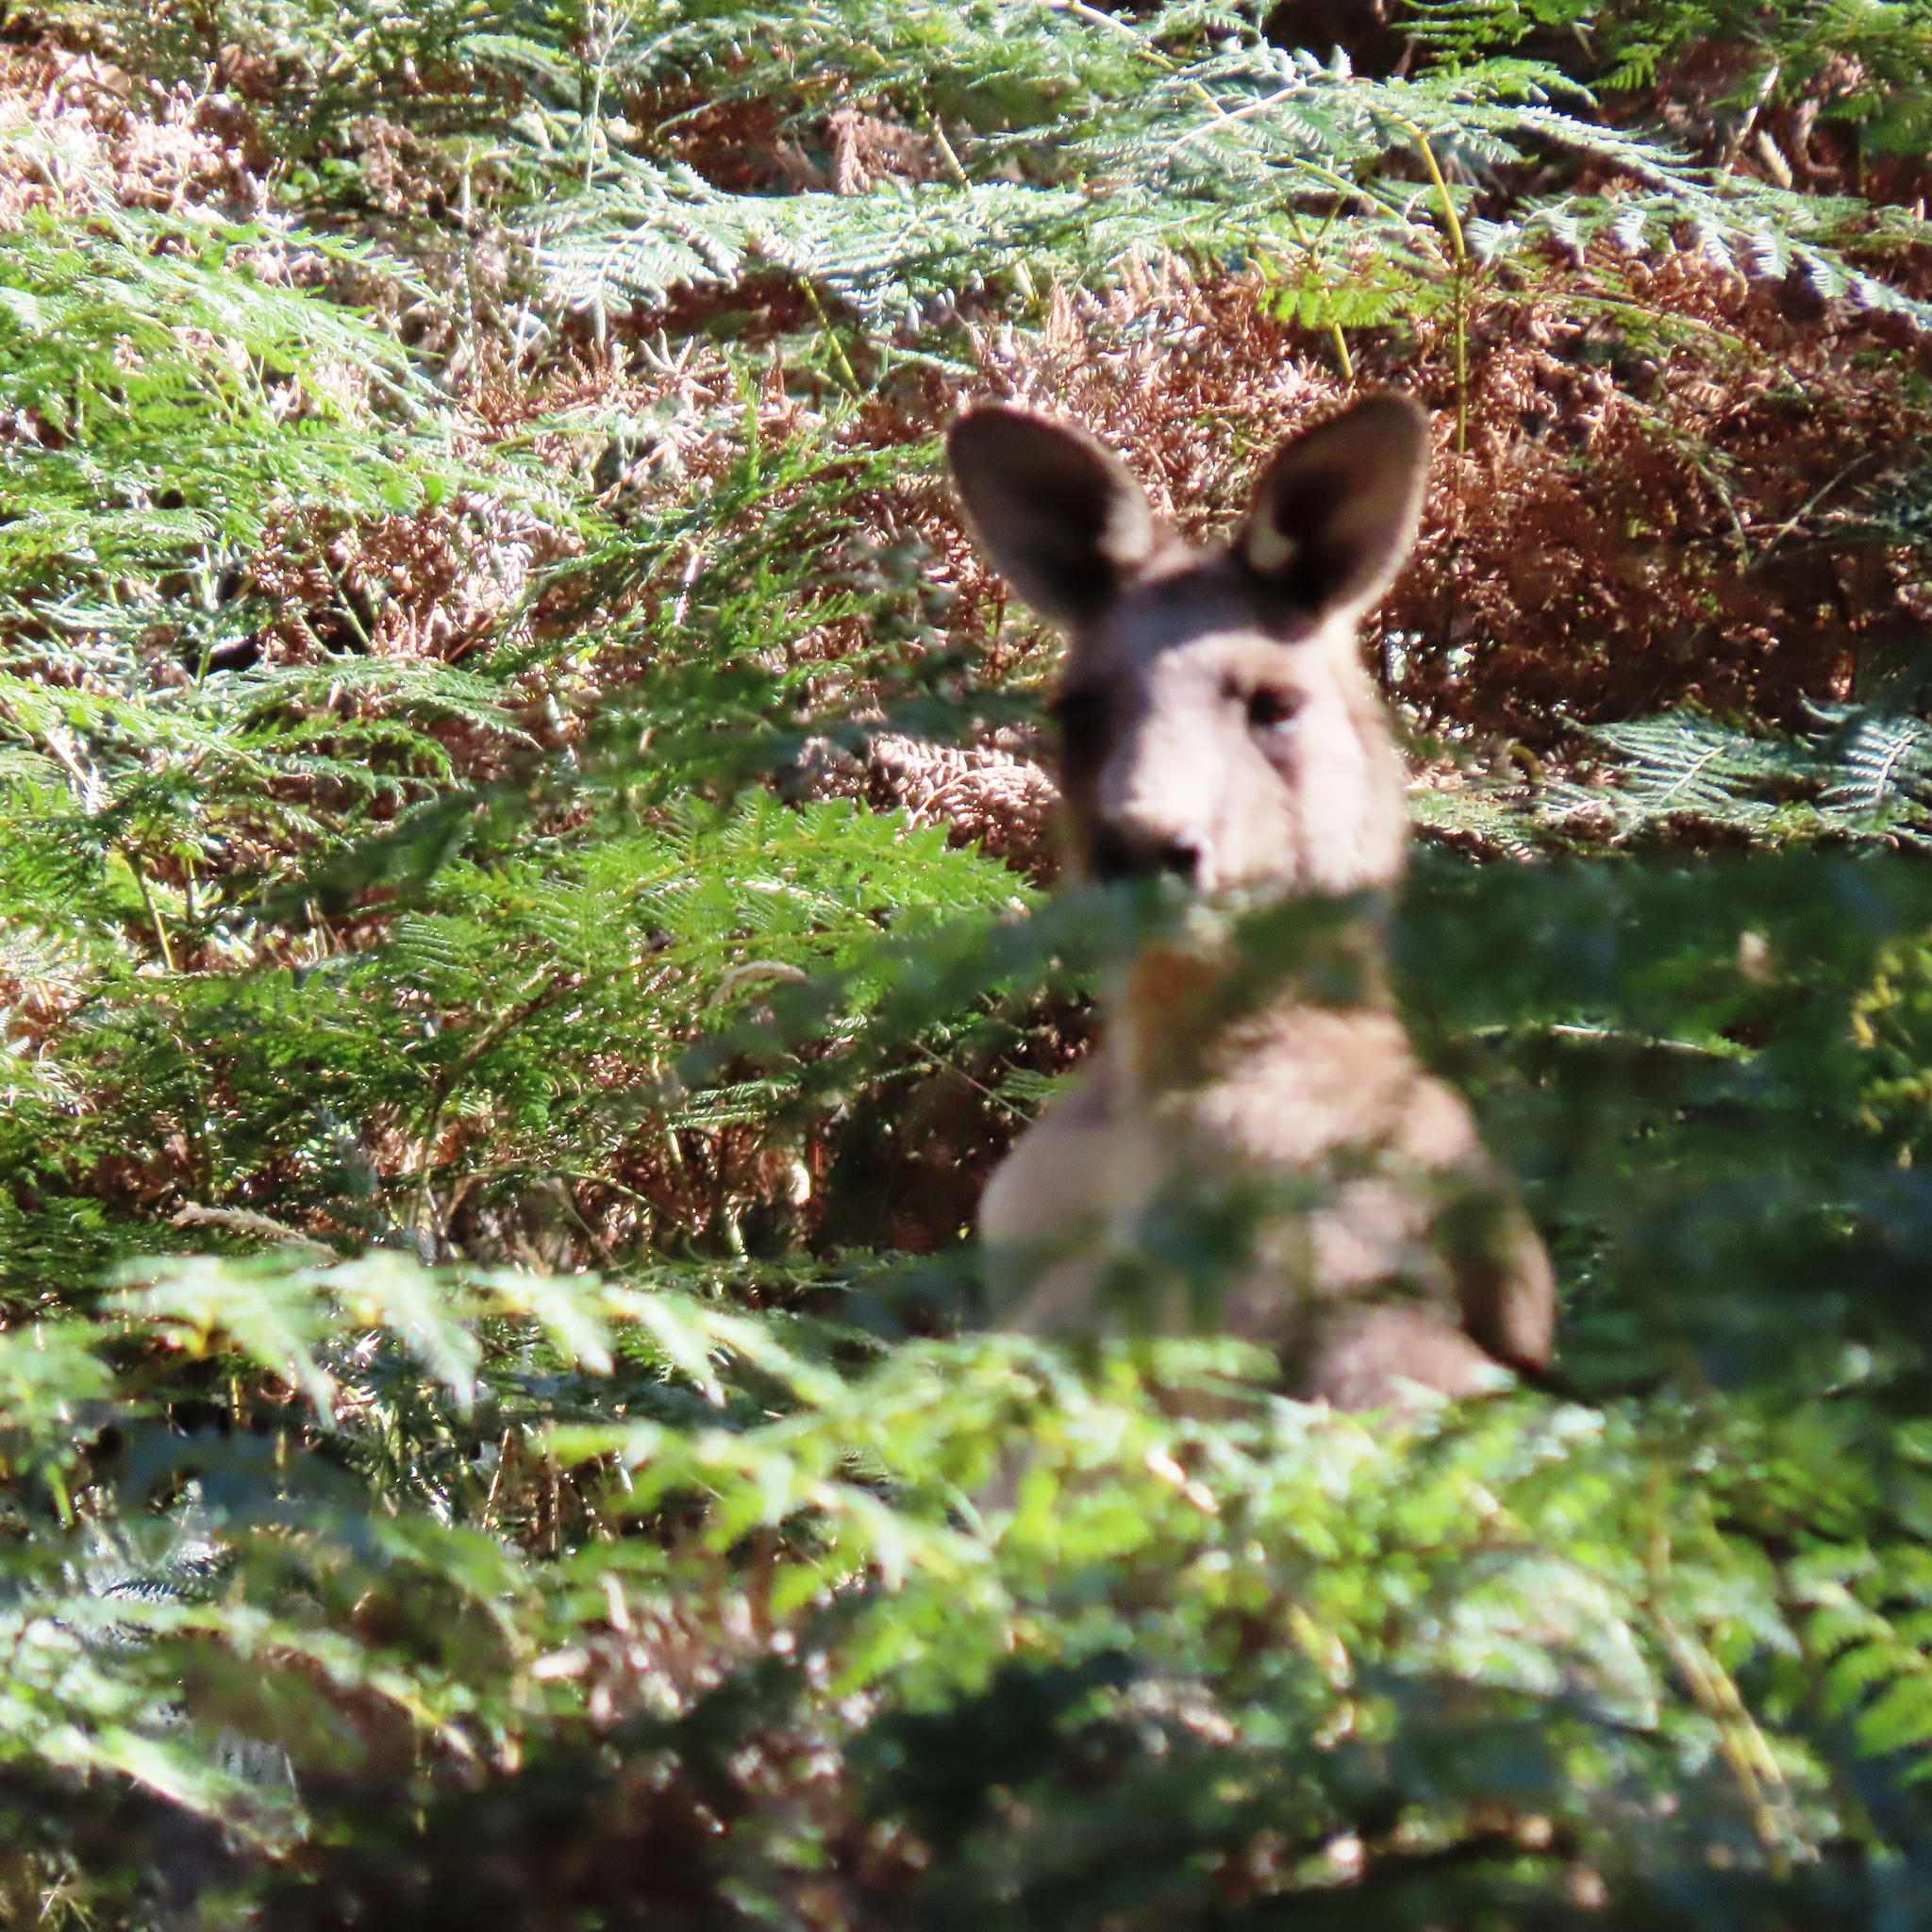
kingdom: Animalia
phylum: Chordata
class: Mammalia
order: Diprotodontia
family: Macropodidae
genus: Macropus
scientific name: Macropus giganteus
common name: Eastern grey kangaroo
